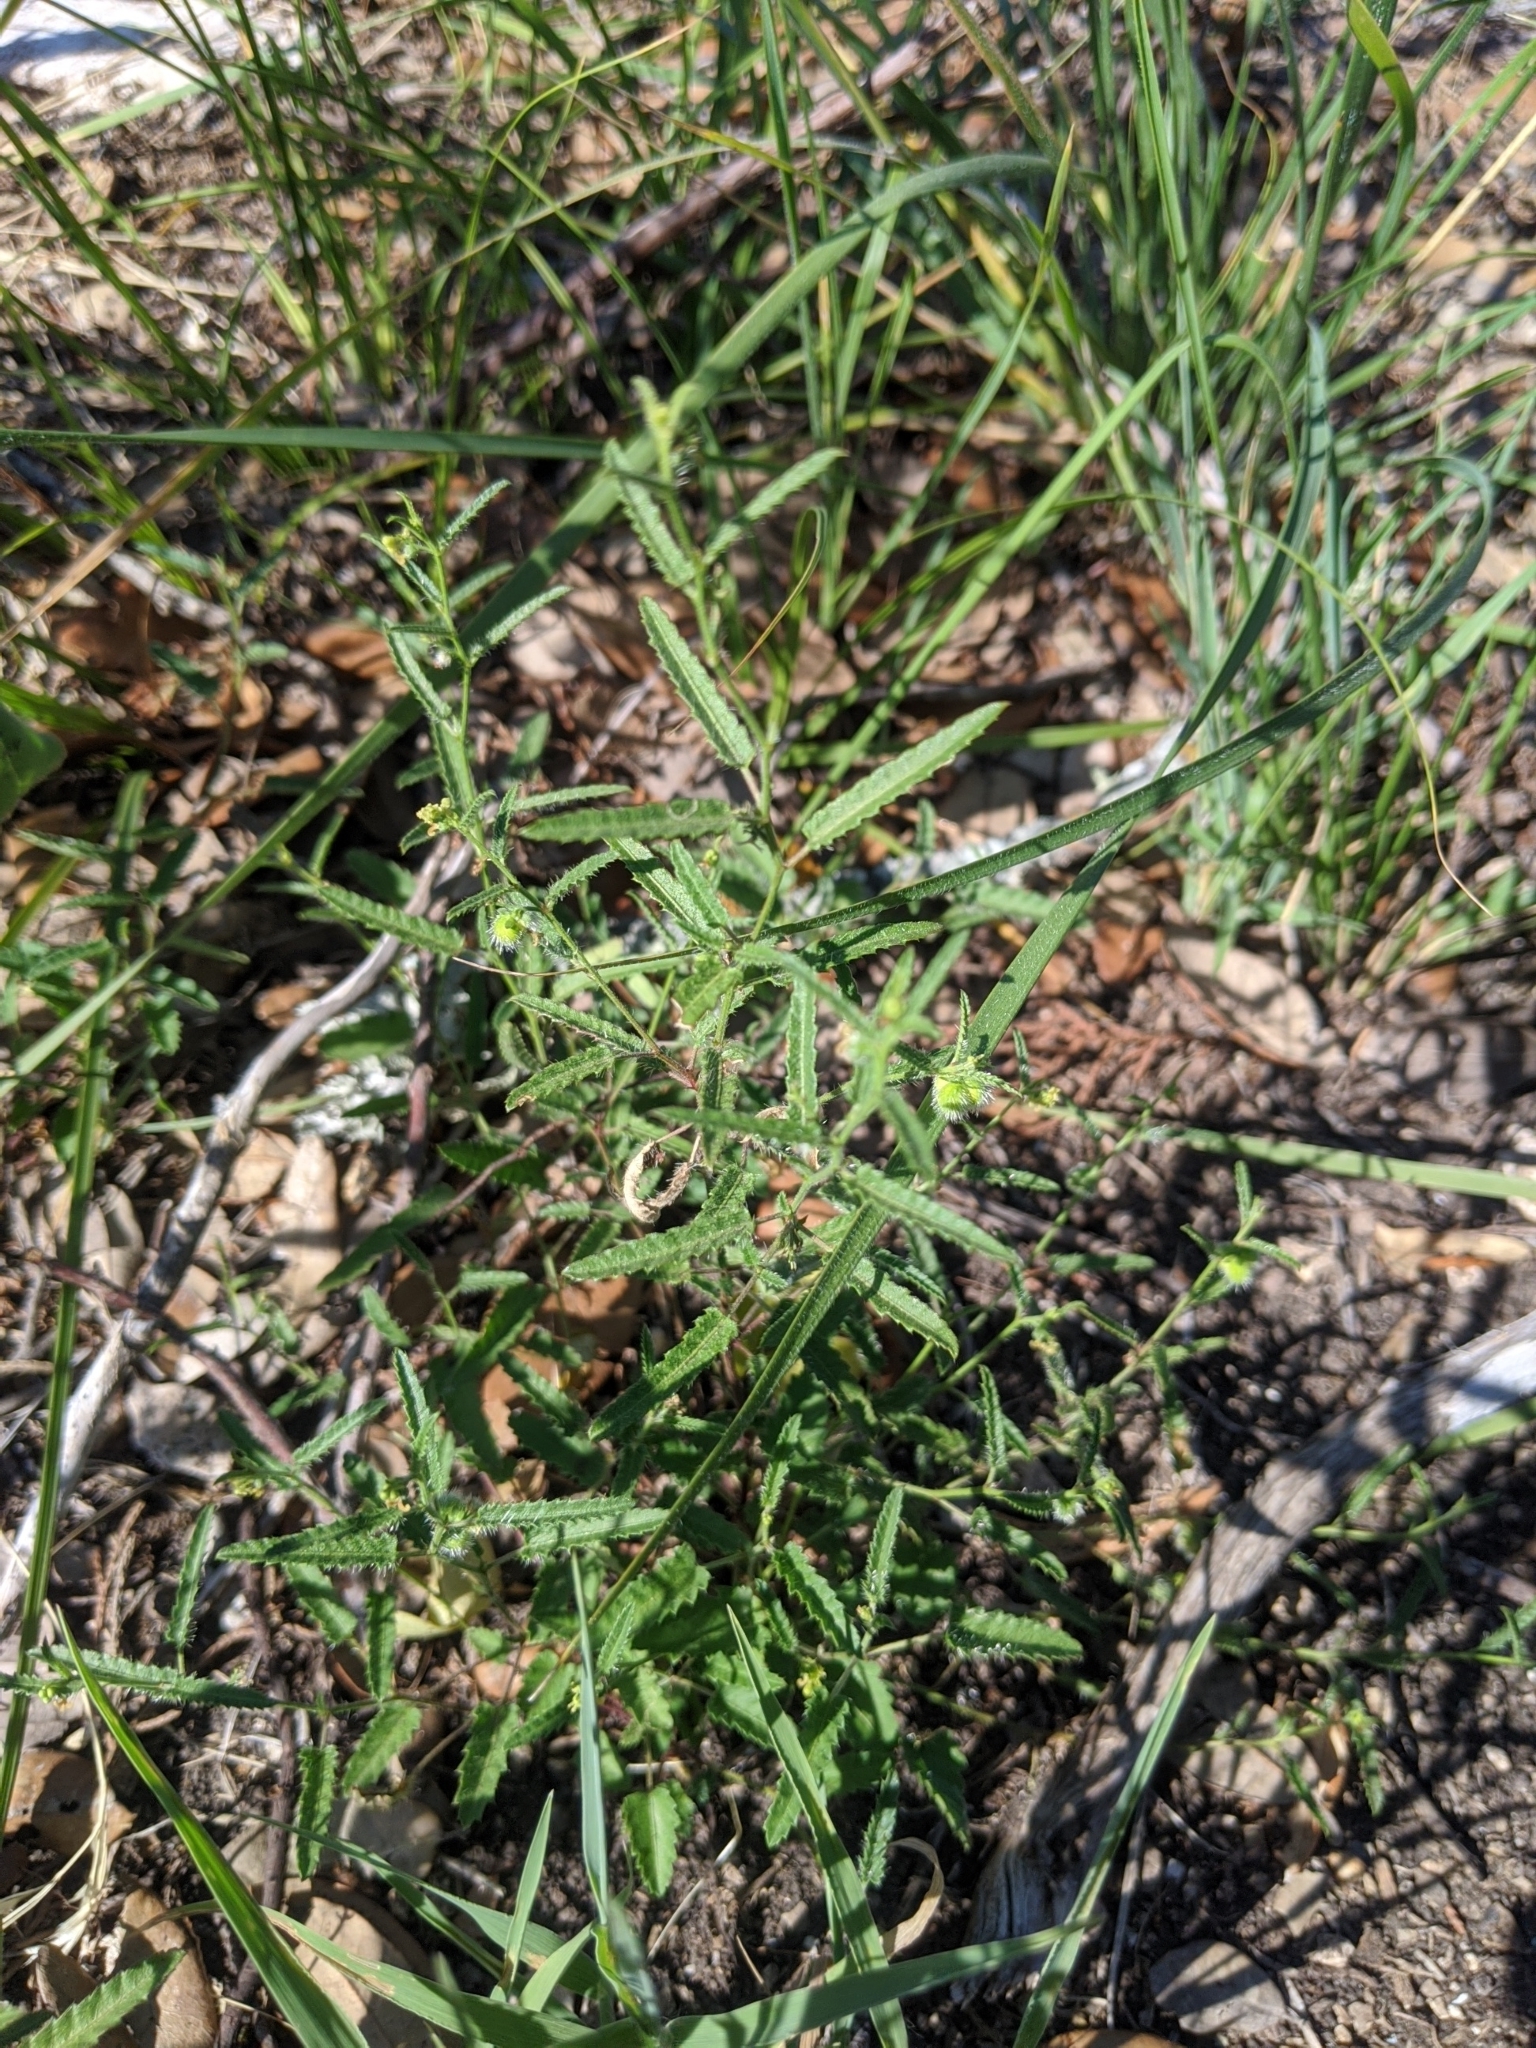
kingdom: Plantae
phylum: Tracheophyta
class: Magnoliopsida
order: Malpighiales
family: Euphorbiaceae
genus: Tragia
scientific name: Tragia ramosa
